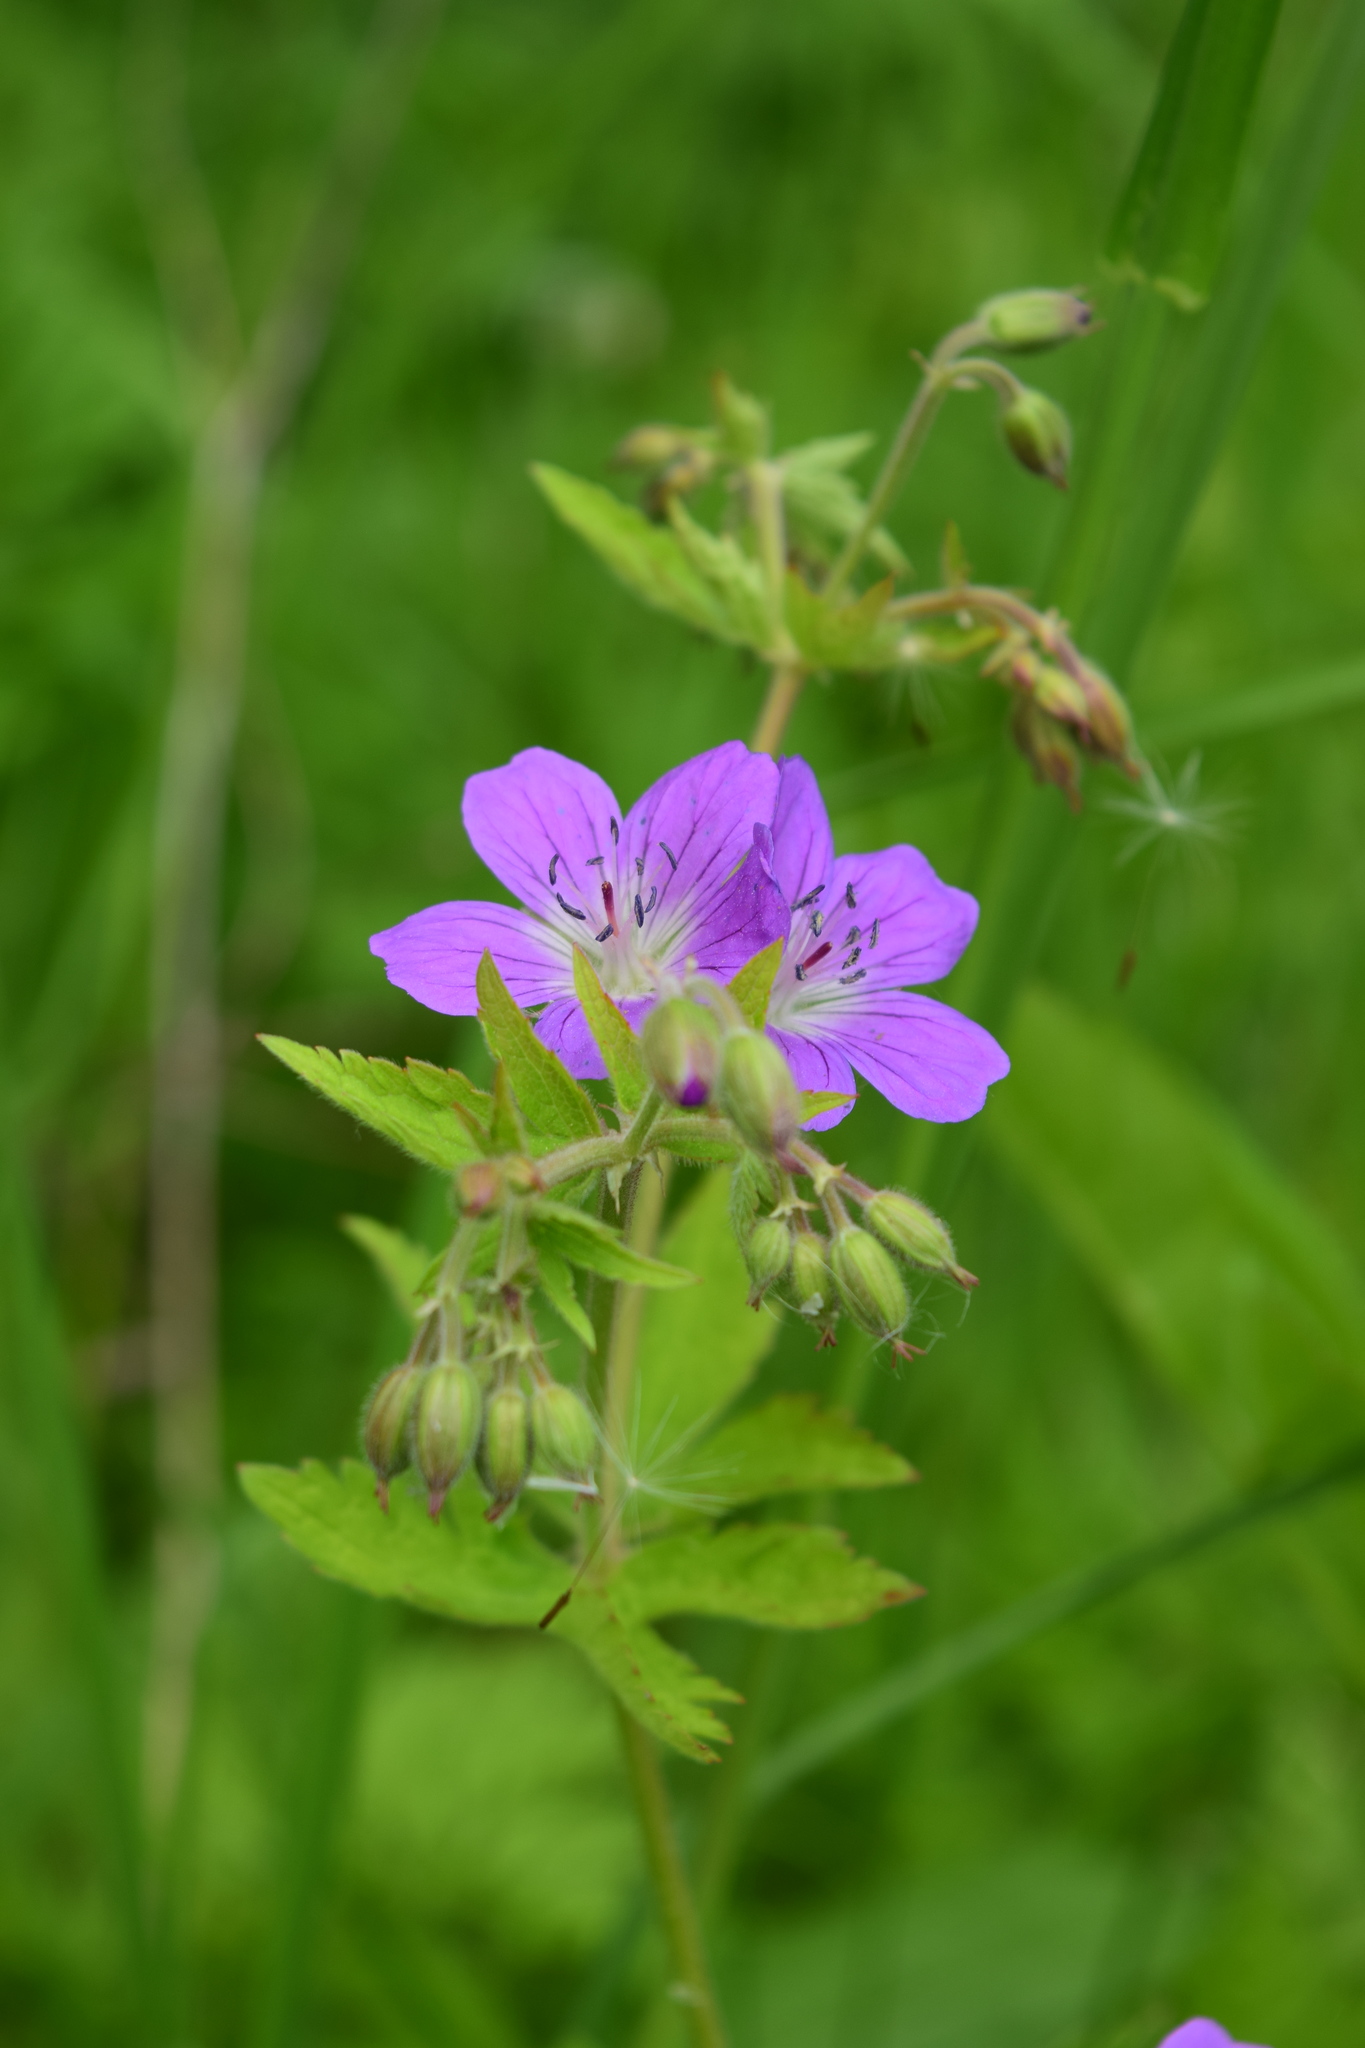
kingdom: Plantae
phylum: Tracheophyta
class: Magnoliopsida
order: Geraniales
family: Geraniaceae
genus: Geranium
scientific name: Geranium sylvaticum
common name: Wood crane's-bill
